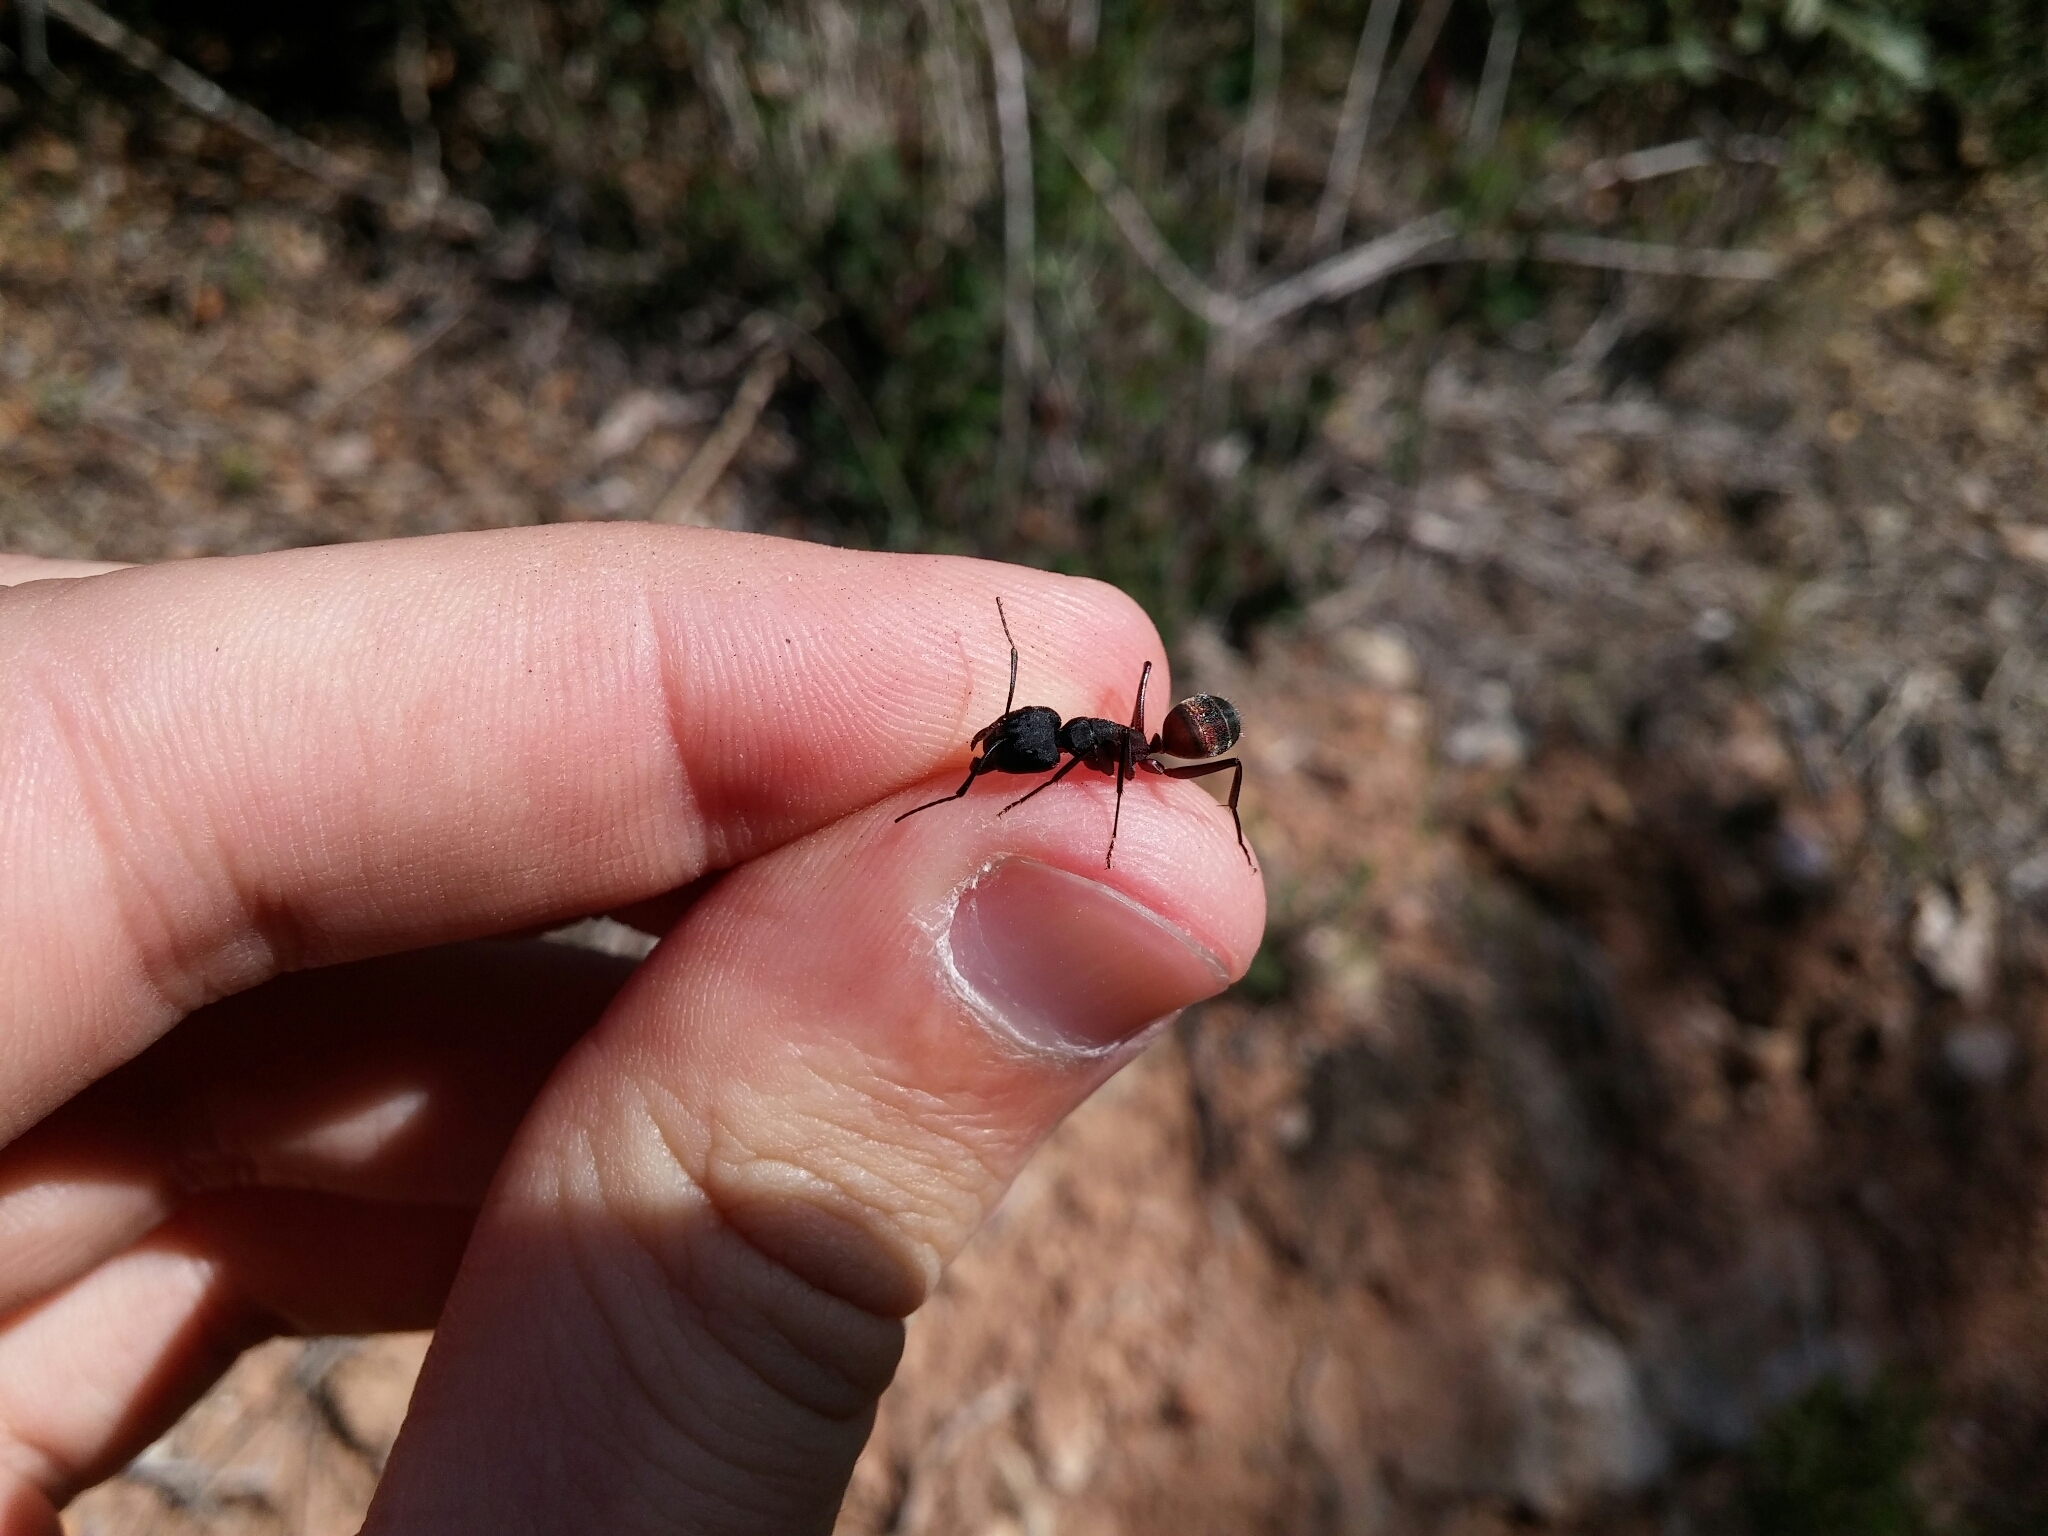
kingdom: Animalia
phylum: Arthropoda
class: Insecta
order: Hymenoptera
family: Formicidae
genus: Camponotus
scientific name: Camponotus cruentatus
